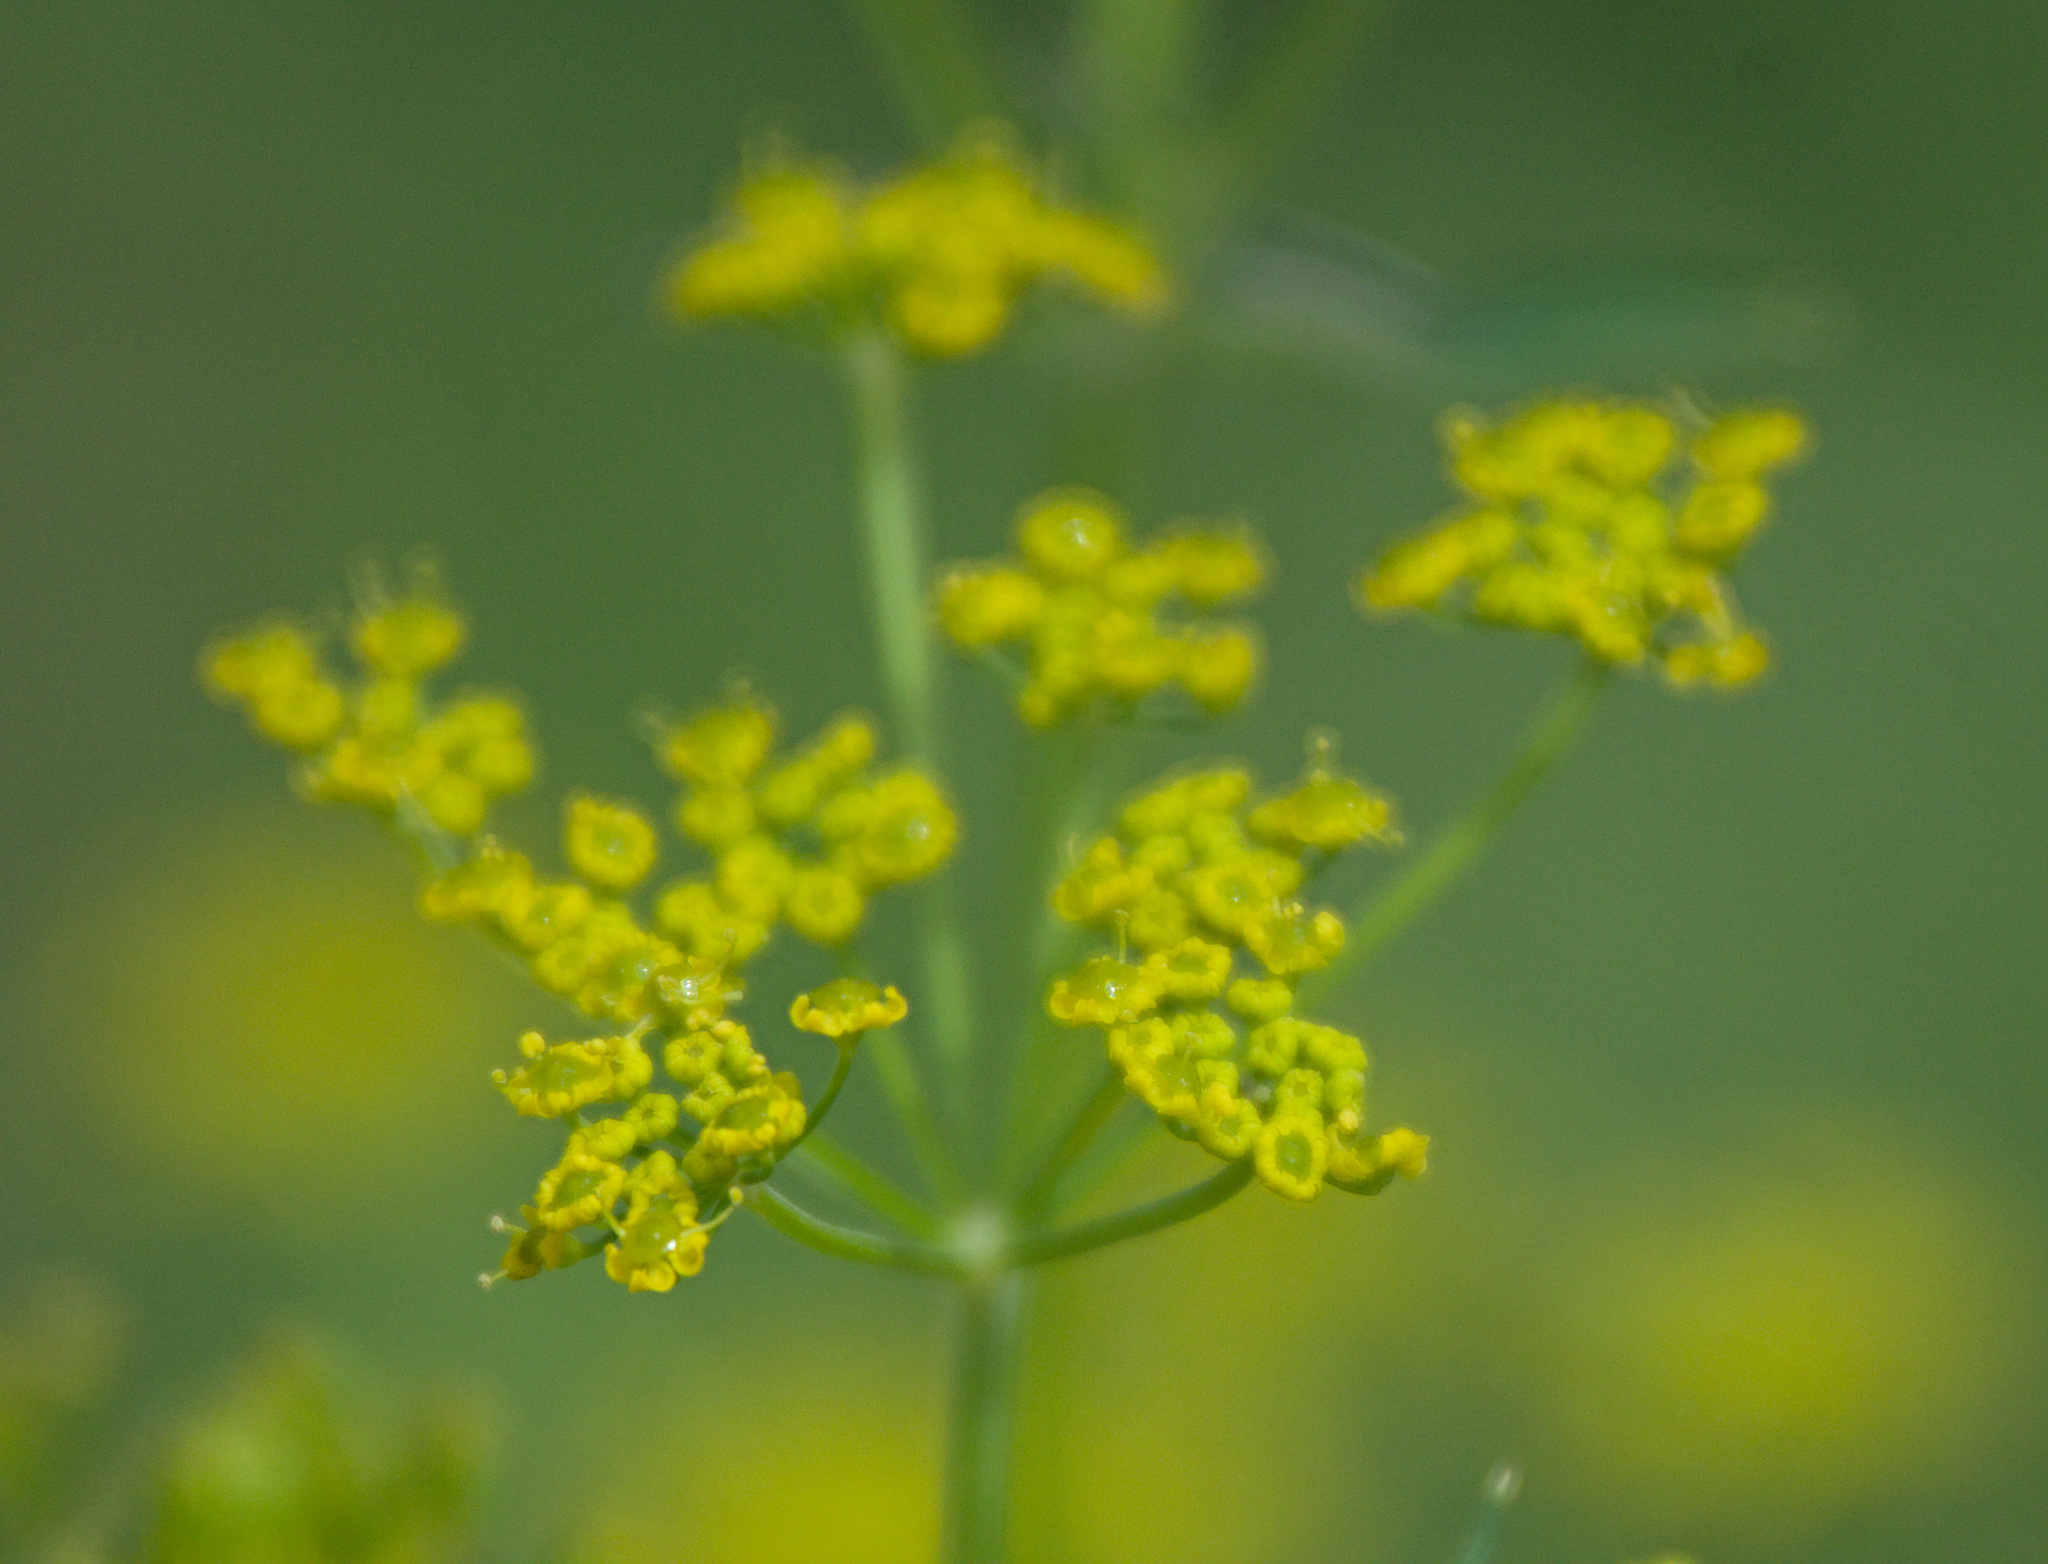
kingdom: Plantae
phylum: Tracheophyta
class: Magnoliopsida
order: Apiales
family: Apiaceae
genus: Pastinaca
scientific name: Pastinaca sativa
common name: Wild parsnip
